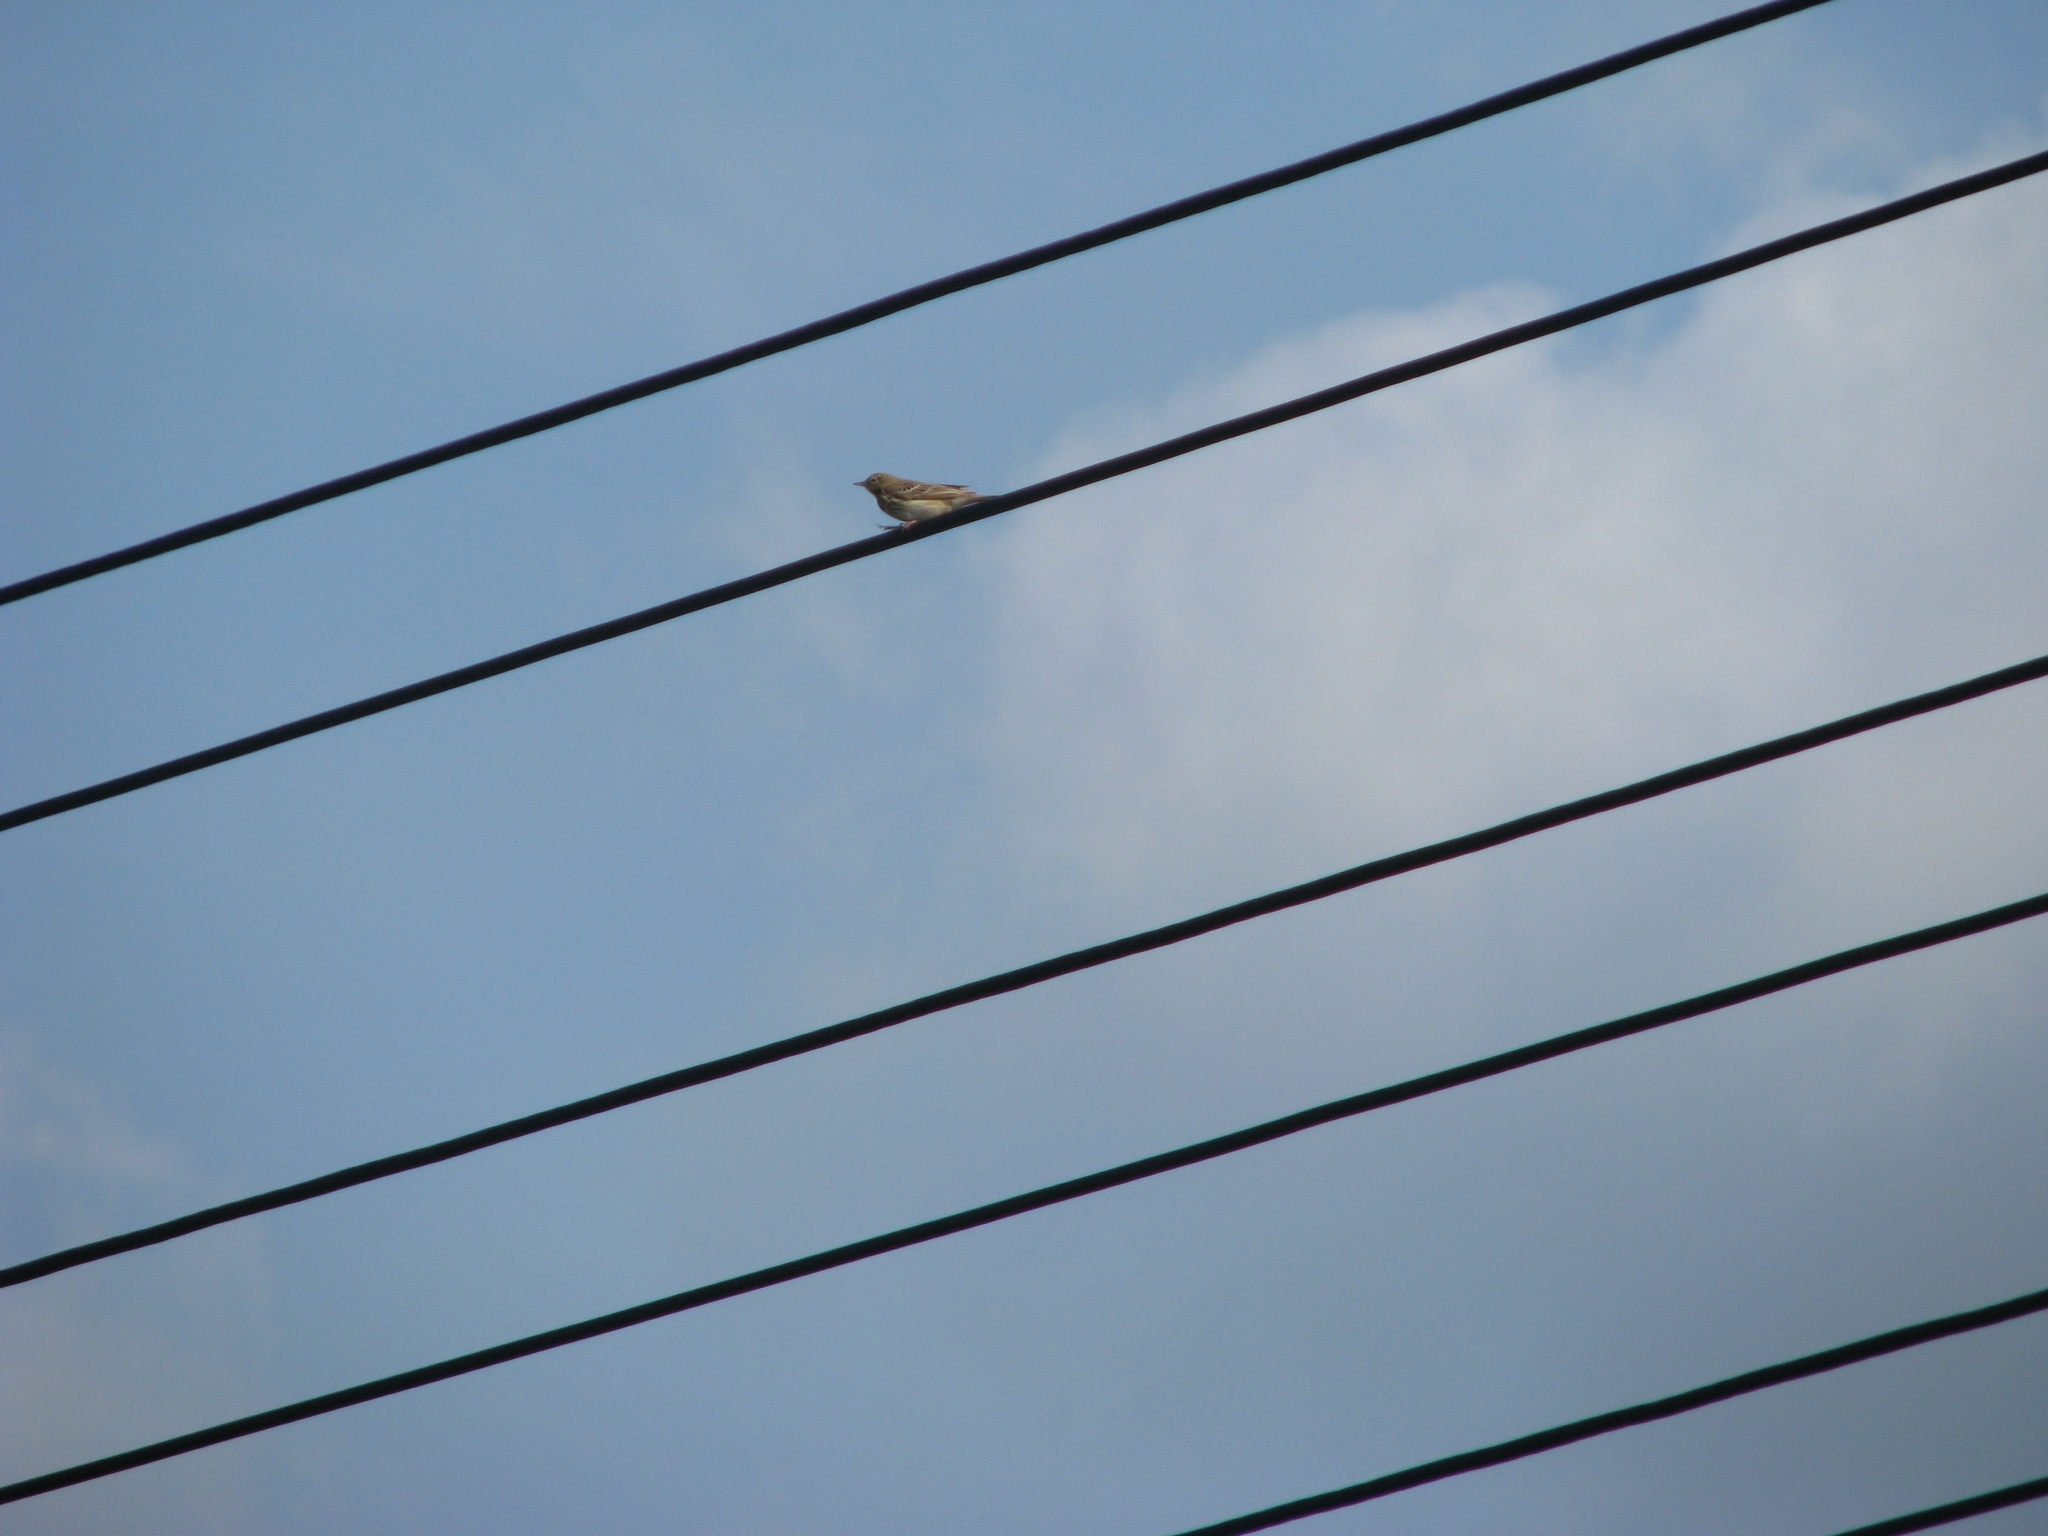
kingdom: Animalia
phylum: Chordata
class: Aves
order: Passeriformes
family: Motacillidae
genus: Anthus
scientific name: Anthus trivialis
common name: Tree pipit
